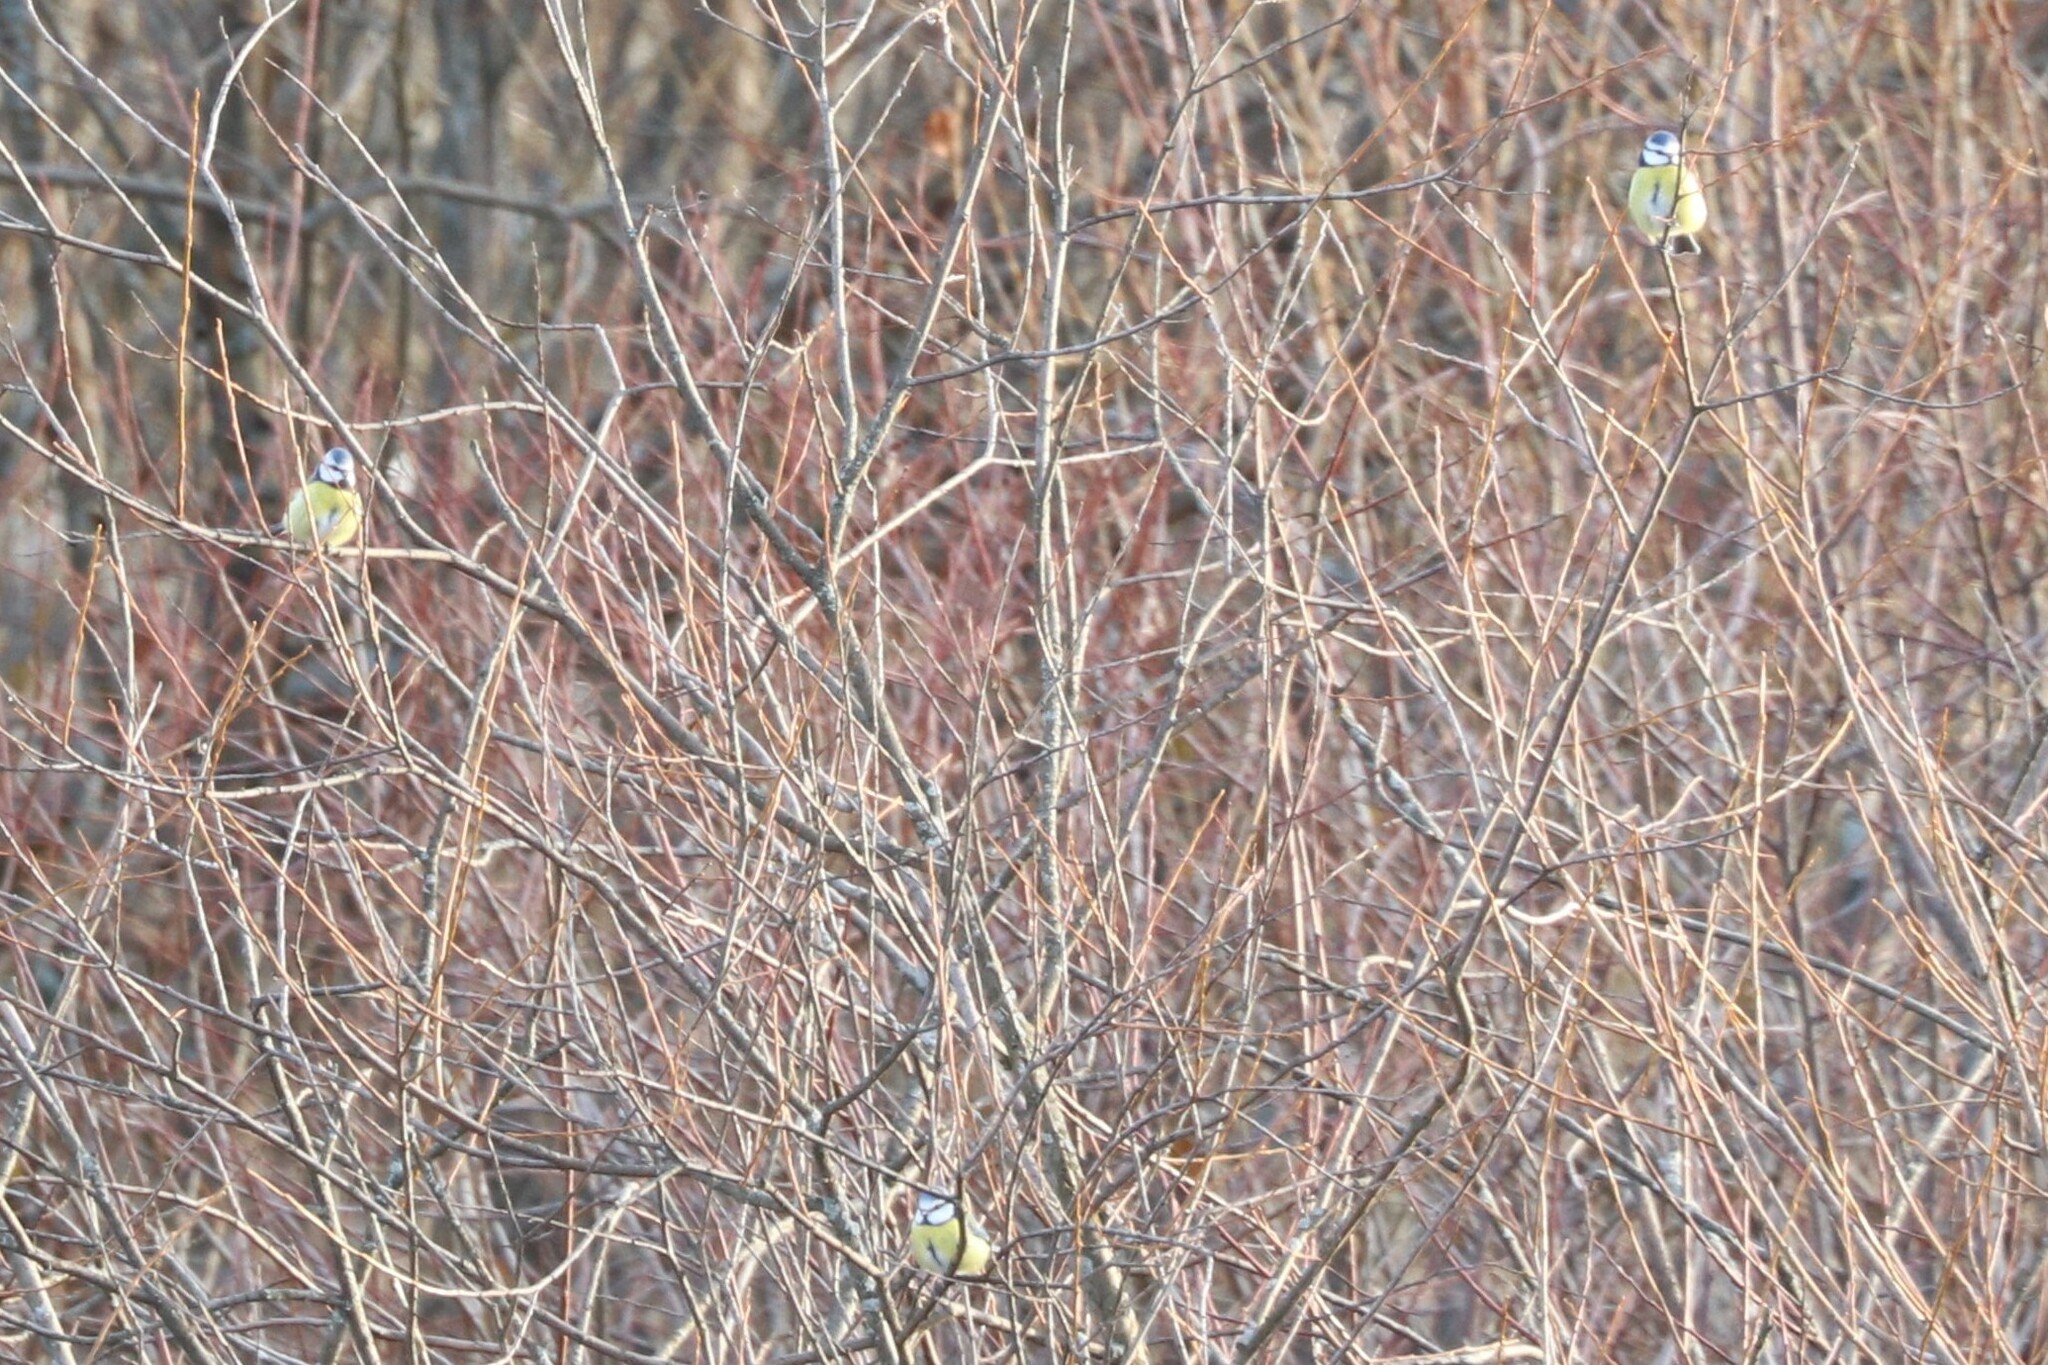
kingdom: Animalia
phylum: Chordata
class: Aves
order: Passeriformes
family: Paridae
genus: Cyanistes
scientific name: Cyanistes caeruleus
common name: Eurasian blue tit
